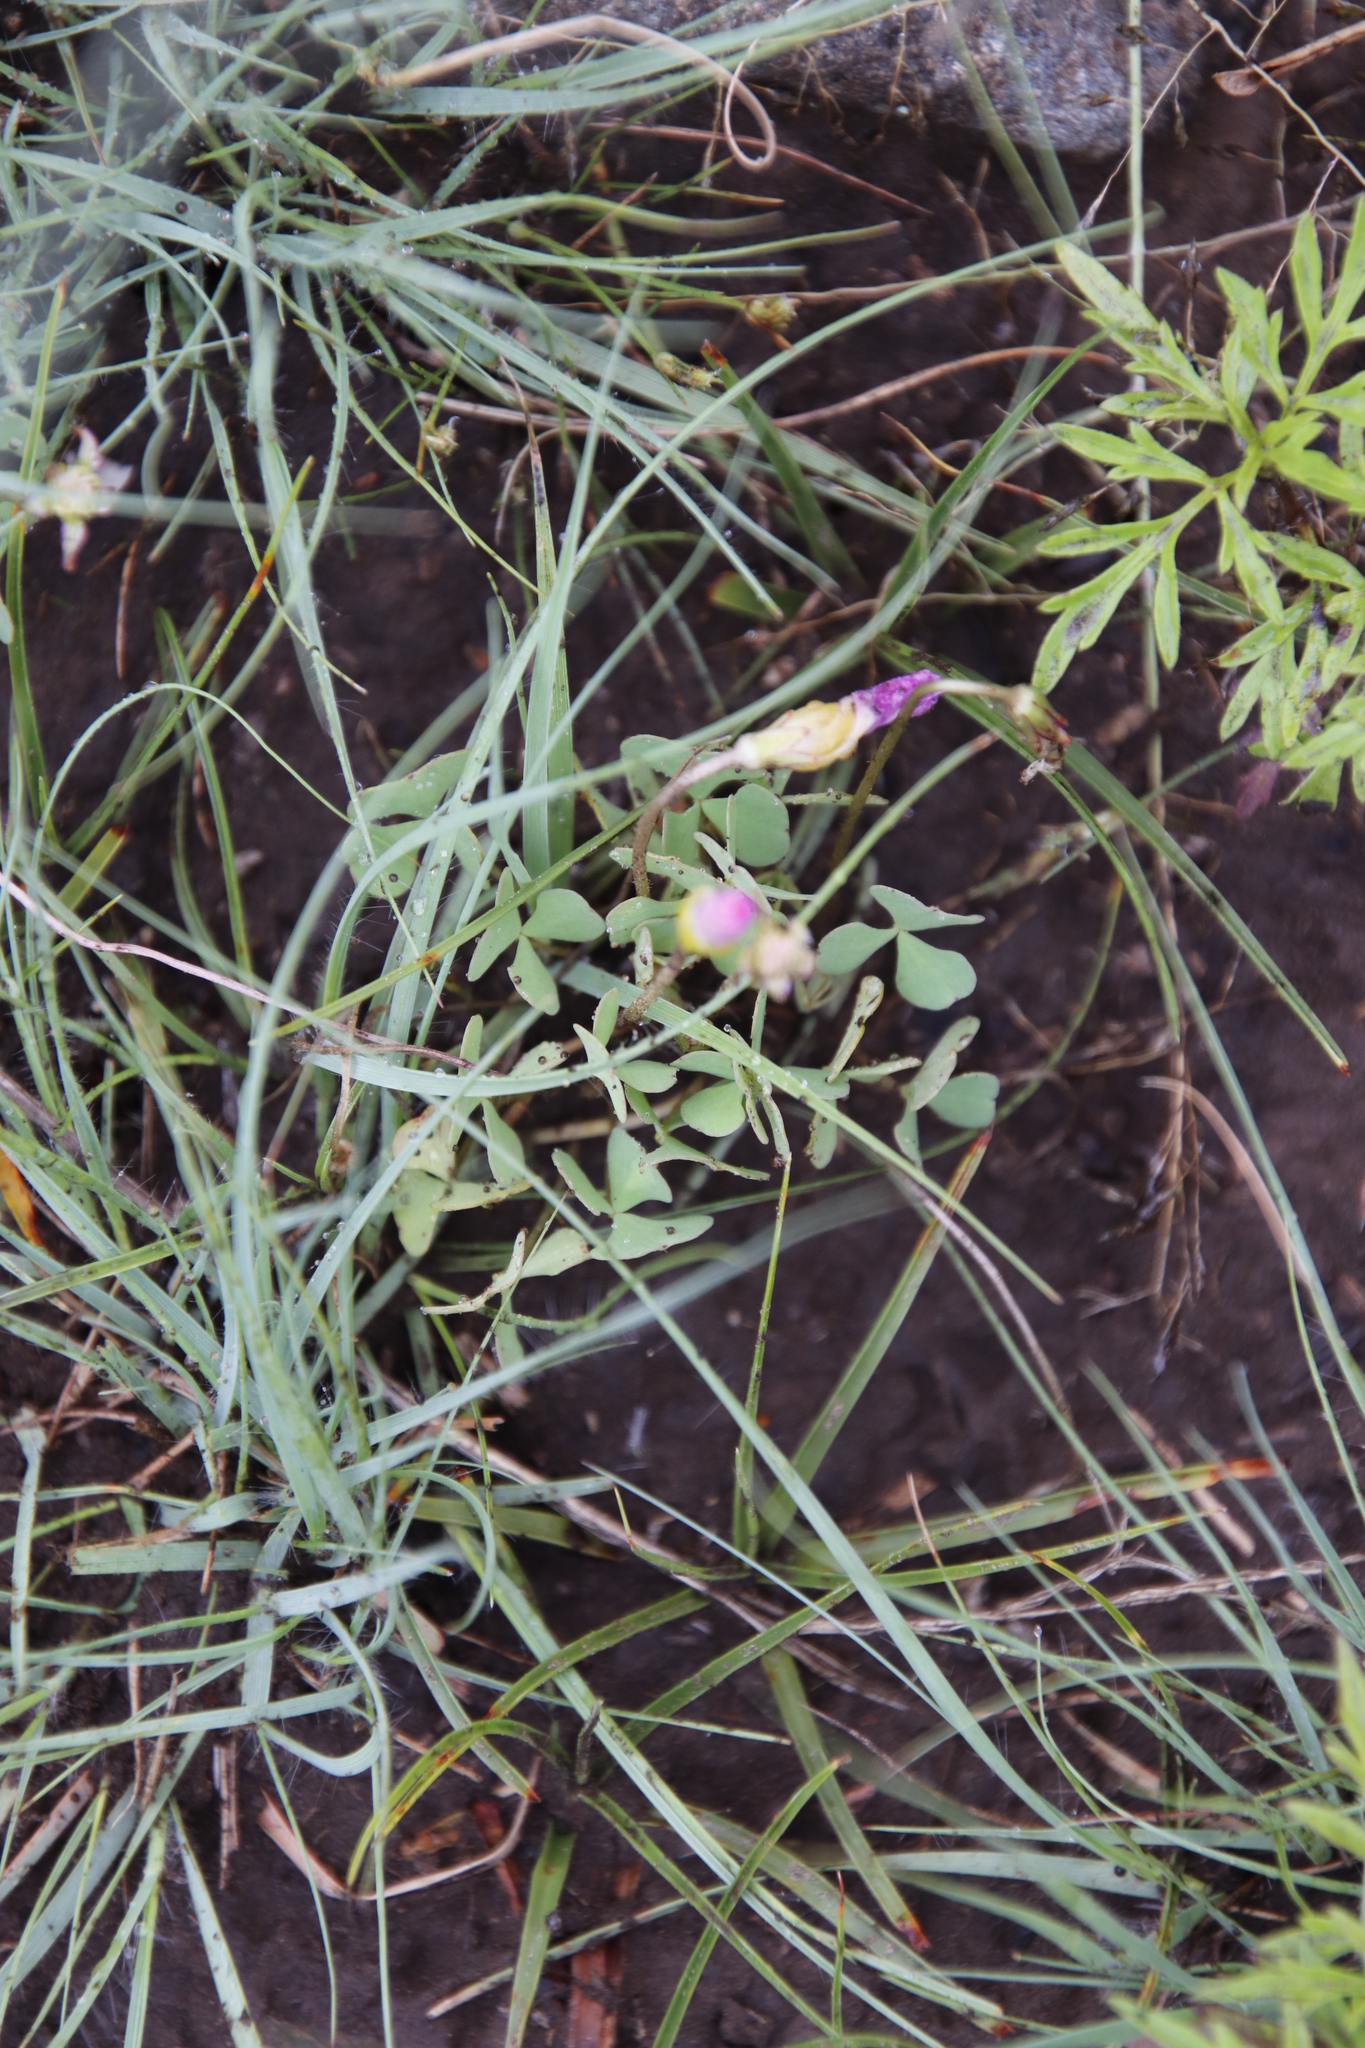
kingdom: Plantae
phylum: Tracheophyta
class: Magnoliopsida
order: Oxalidales
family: Oxalidaceae
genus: Oxalis
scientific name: Oxalis obliquifolia
